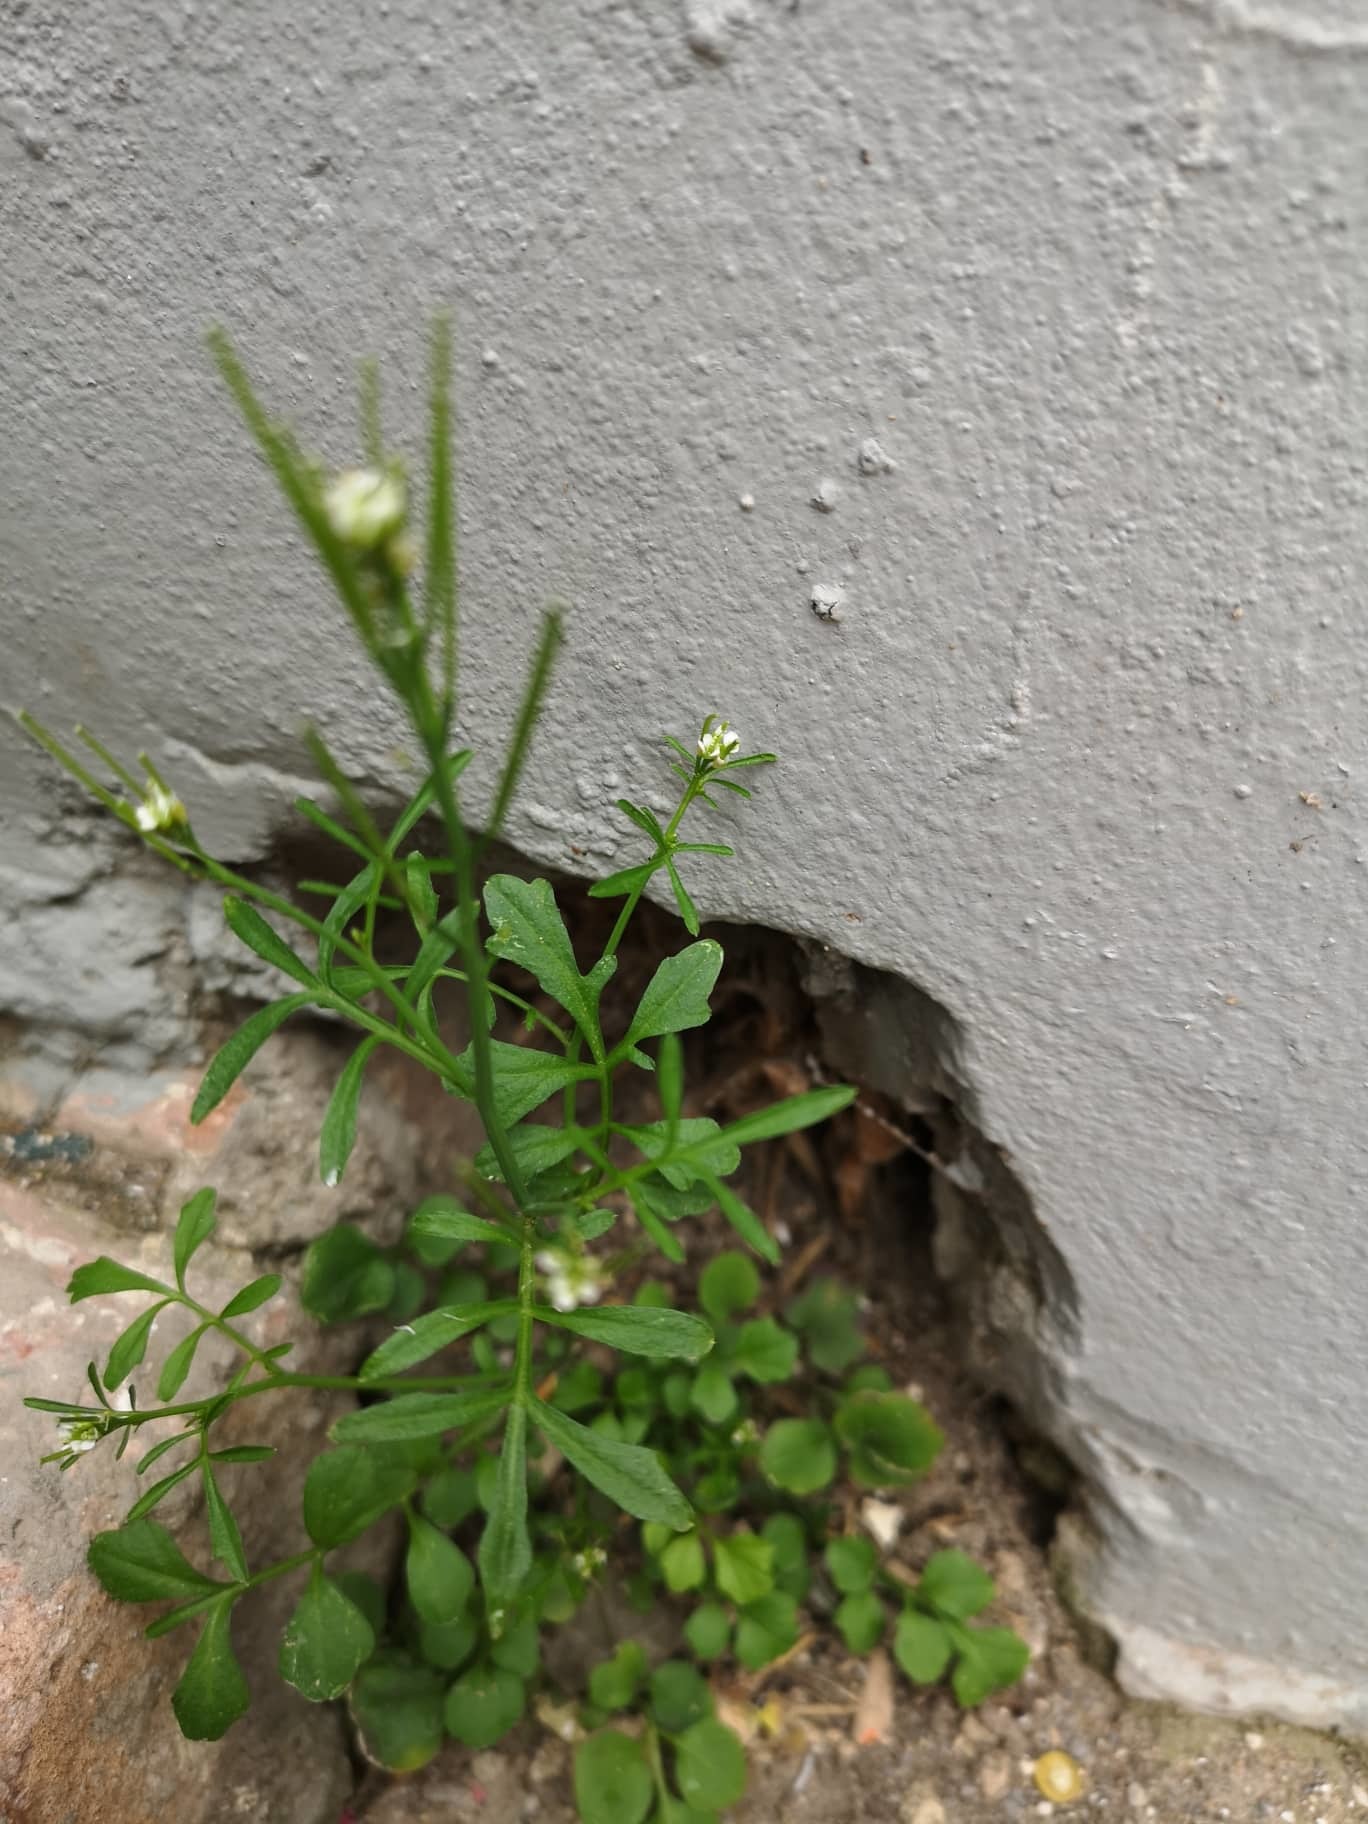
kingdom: Plantae
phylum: Tracheophyta
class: Magnoliopsida
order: Brassicales
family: Brassicaceae
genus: Cardamine
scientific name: Cardamine hirsuta
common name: Hairy bittercress
